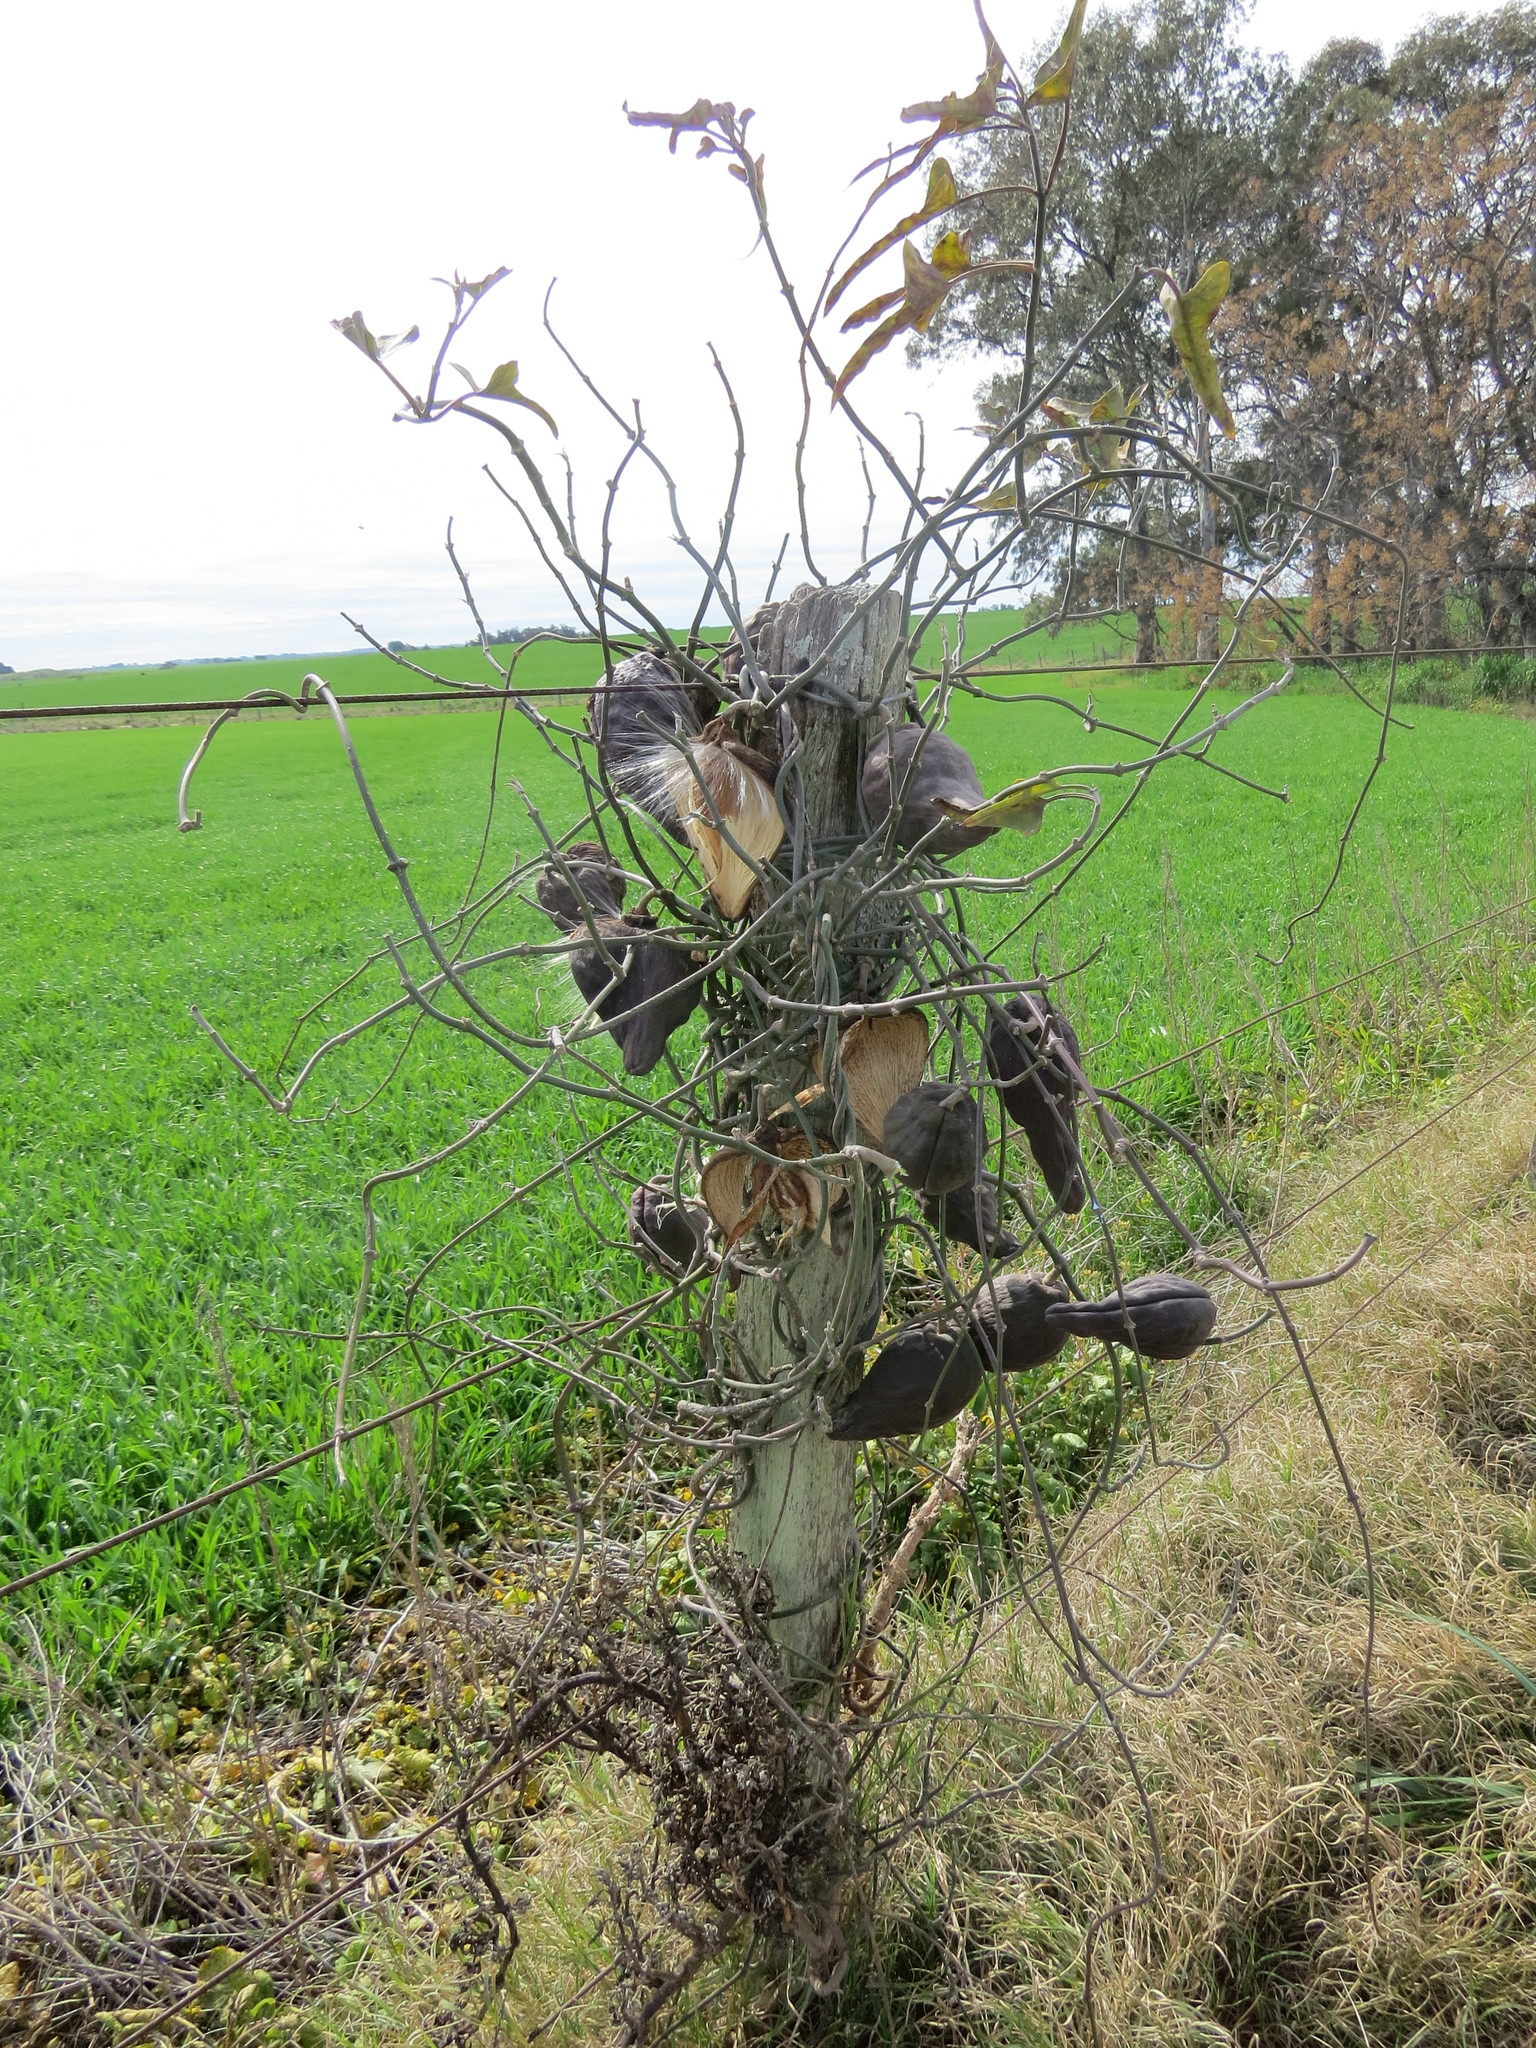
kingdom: Plantae
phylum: Tracheophyta
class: Magnoliopsida
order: Gentianales
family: Apocynaceae
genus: Araujia
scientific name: Araujia odorata
